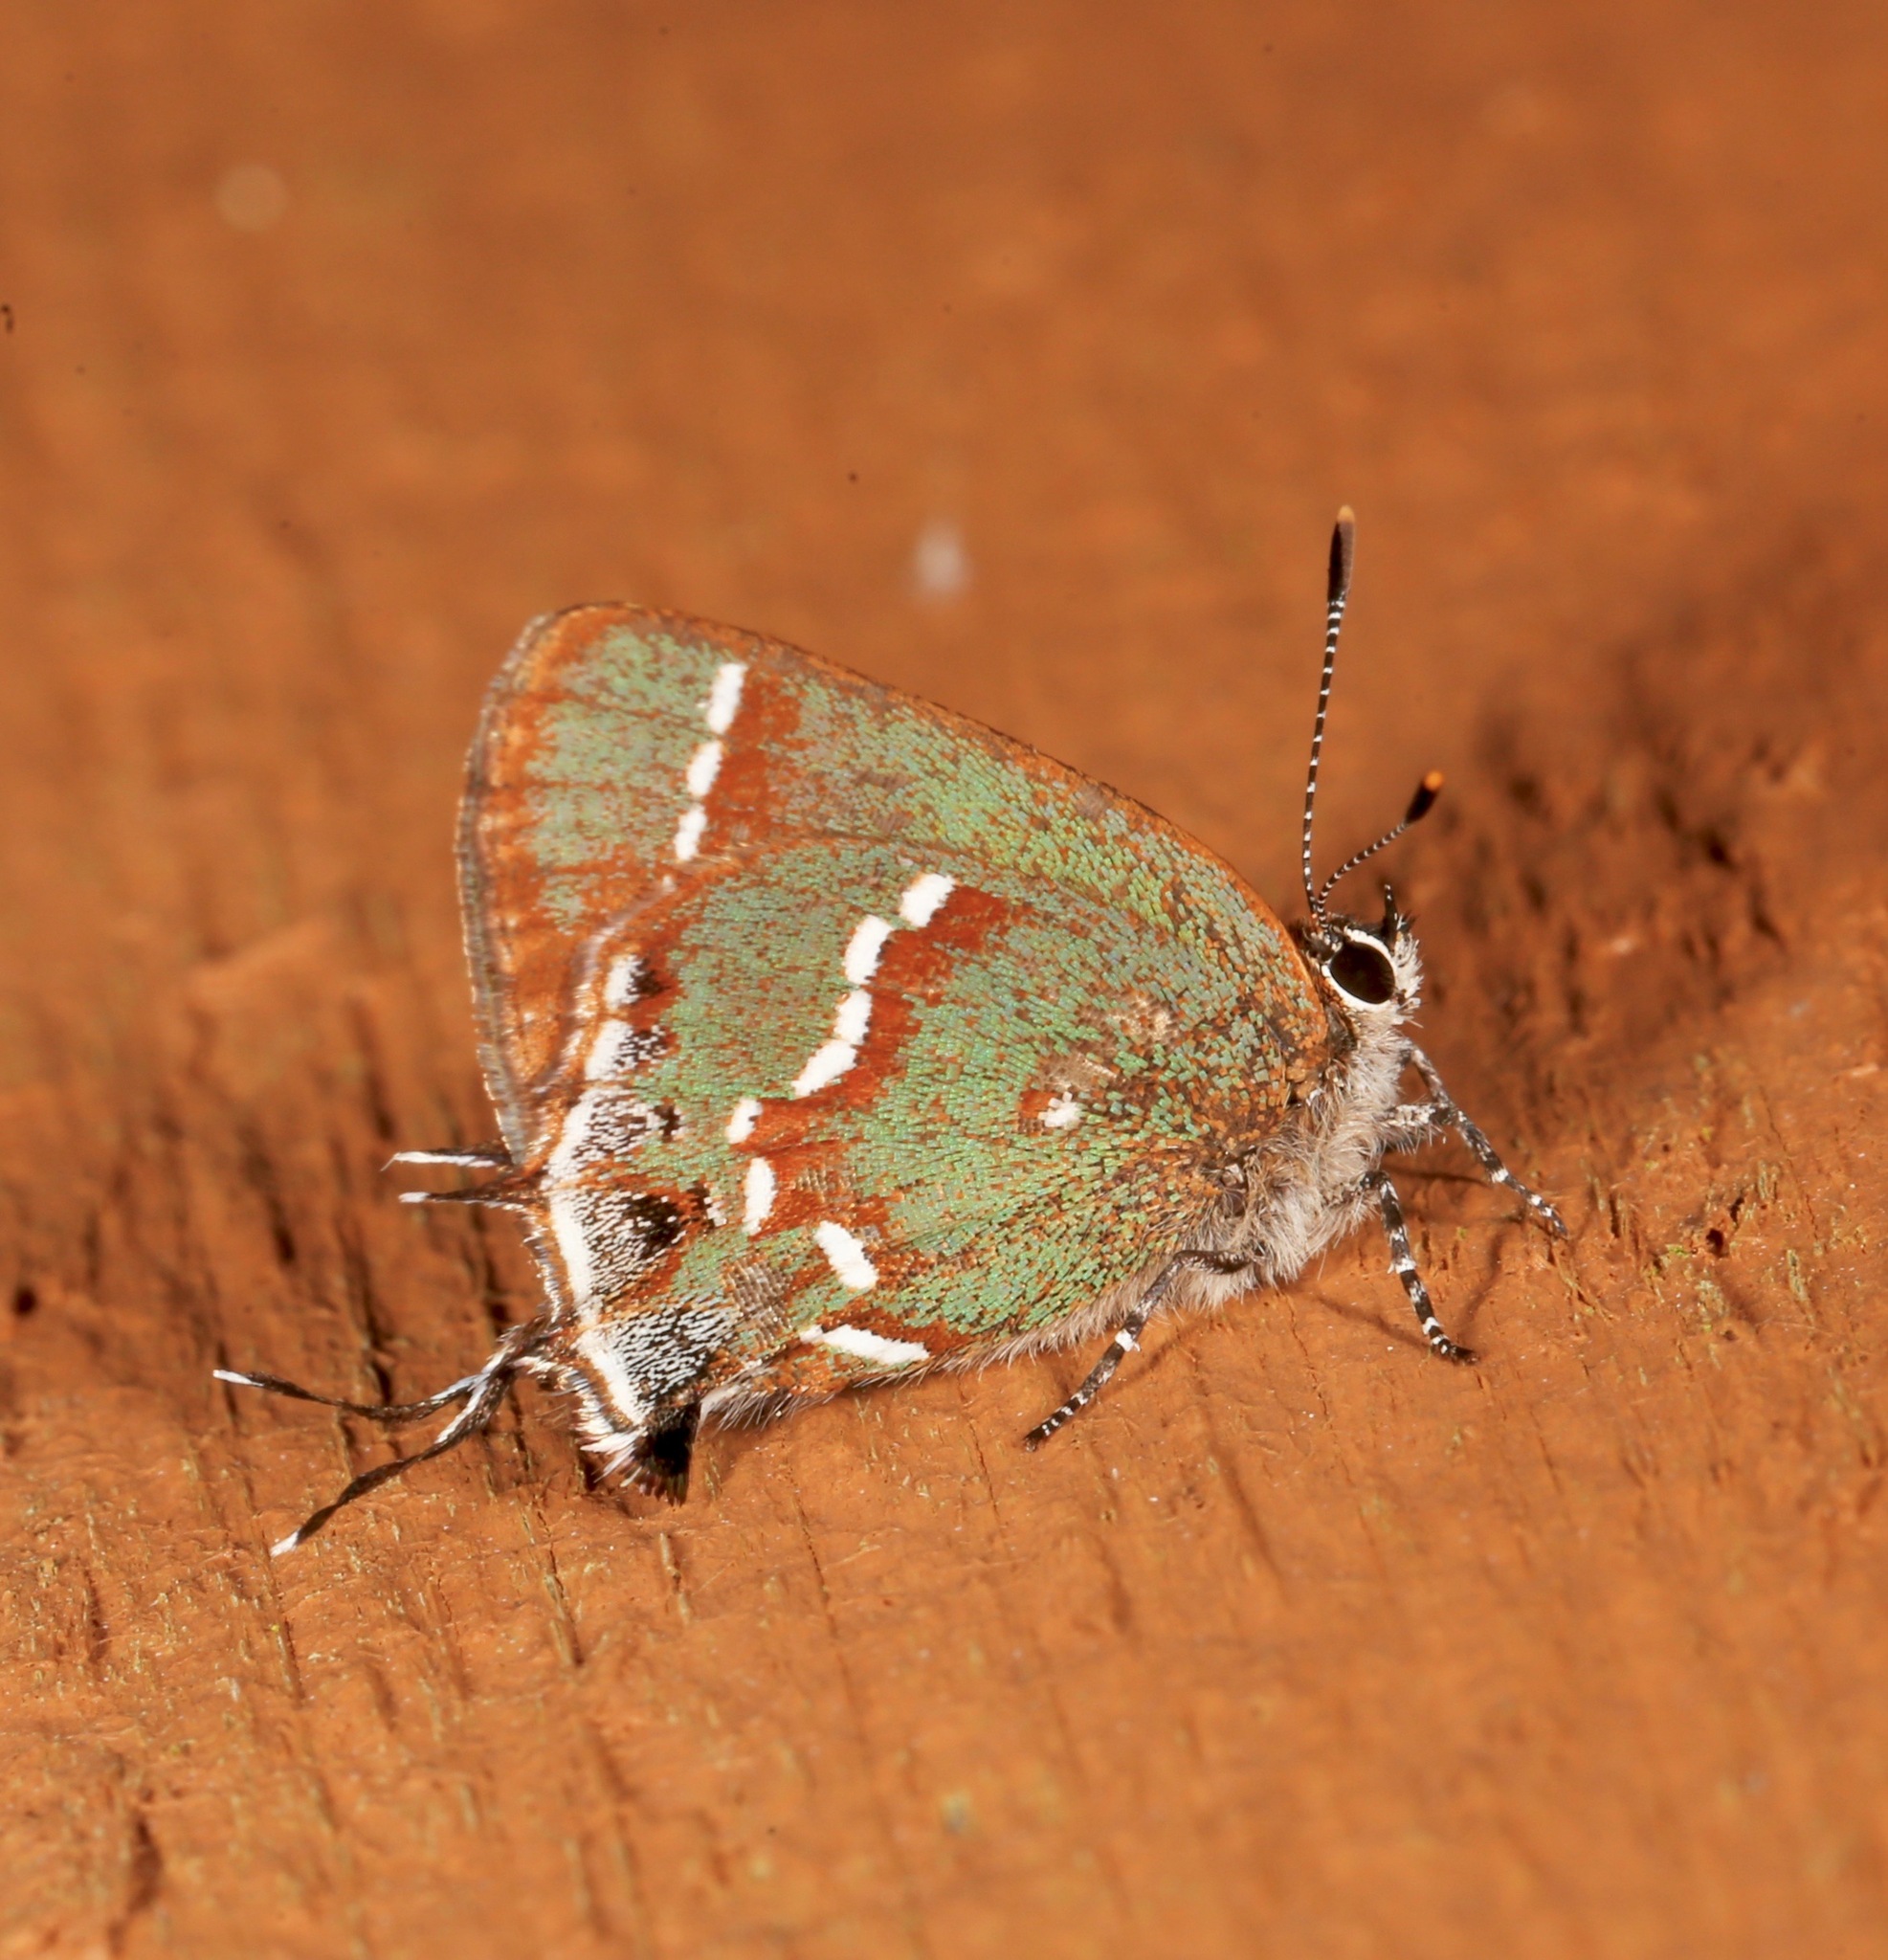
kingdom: Animalia
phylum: Arthropoda
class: Insecta
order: Lepidoptera
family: Lycaenidae
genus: Mitoura
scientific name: Mitoura gryneus
